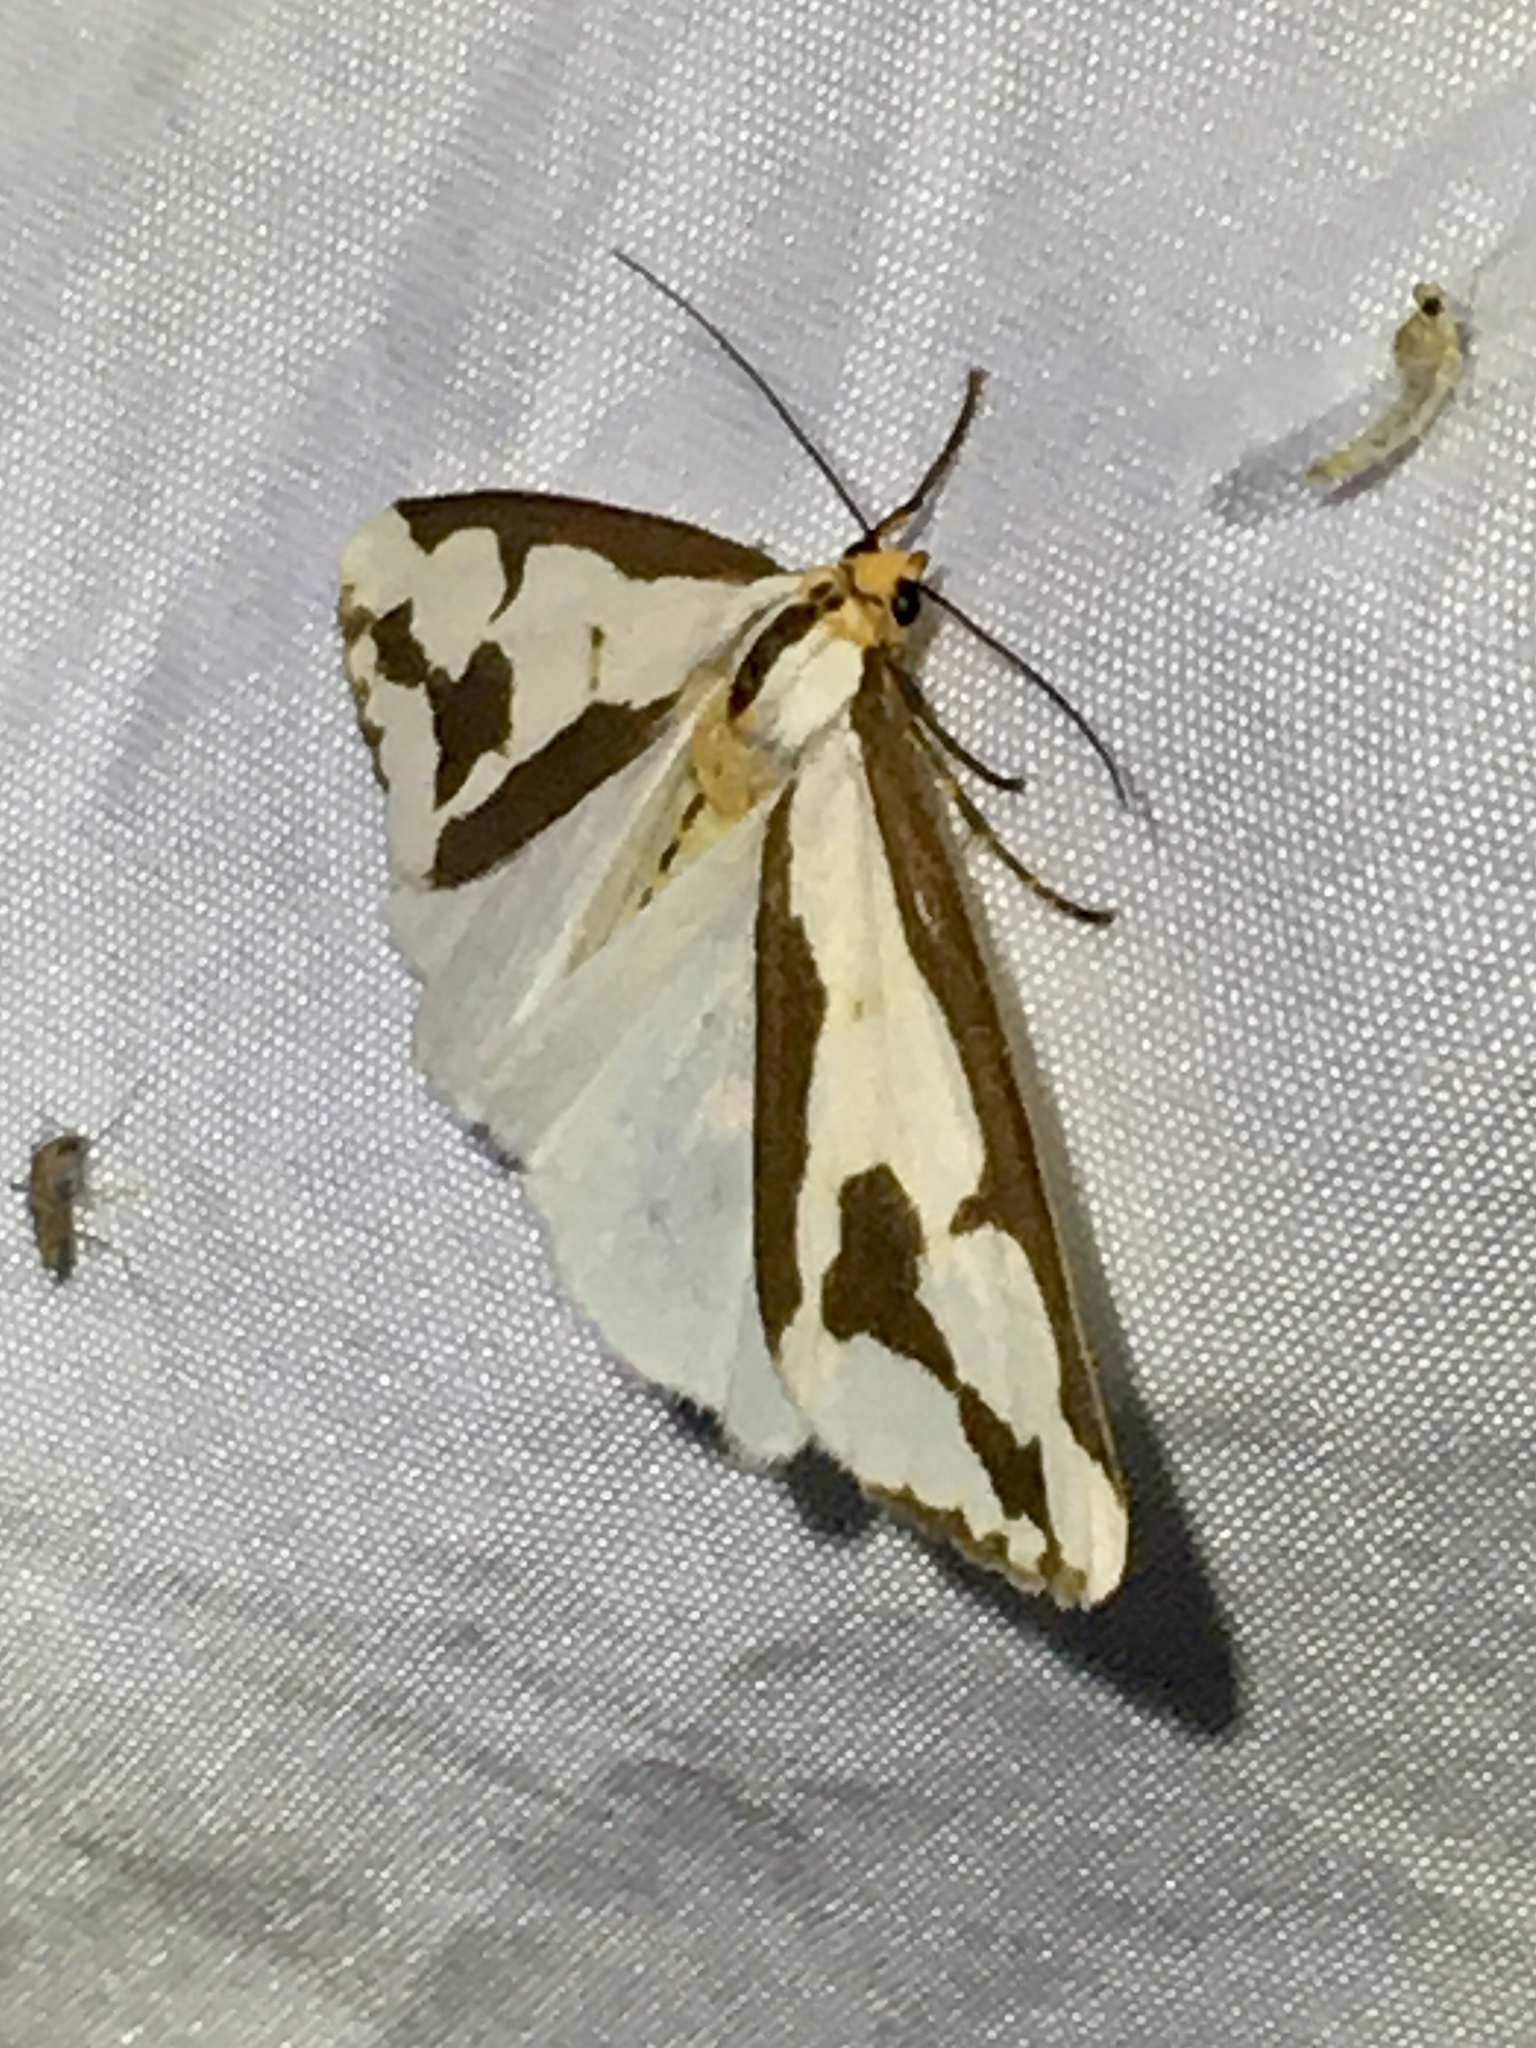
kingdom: Animalia
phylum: Arthropoda
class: Insecta
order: Lepidoptera
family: Erebidae
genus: Haploa
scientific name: Haploa confusa
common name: Confused haploa moth
